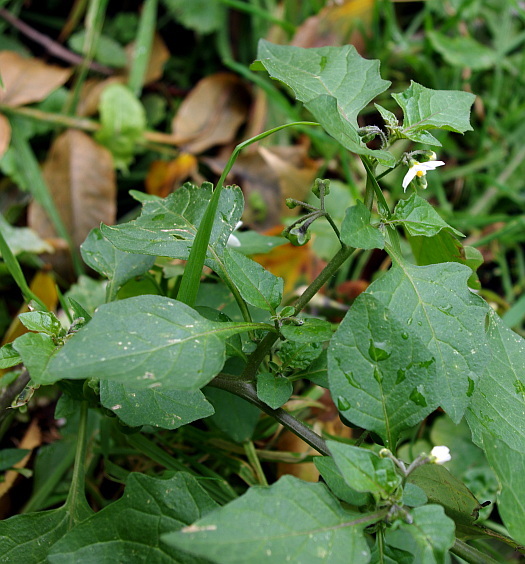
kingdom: Plantae
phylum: Tracheophyta
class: Magnoliopsida
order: Solanales
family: Solanaceae
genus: Solanum
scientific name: Solanum nigrum
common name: Black nightshade
